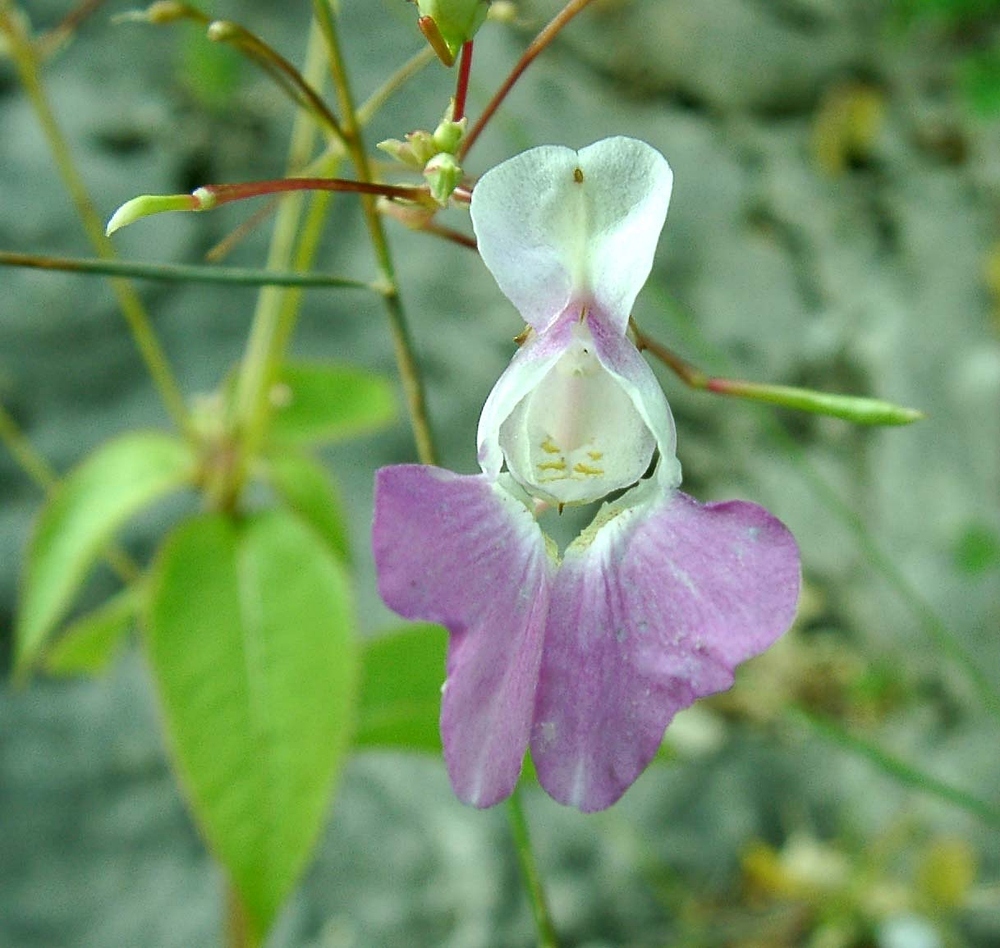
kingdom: Plantae
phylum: Tracheophyta
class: Magnoliopsida
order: Ericales
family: Balsaminaceae
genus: Impatiens
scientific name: Impatiens balfourii
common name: Balfour's touch-me-not
